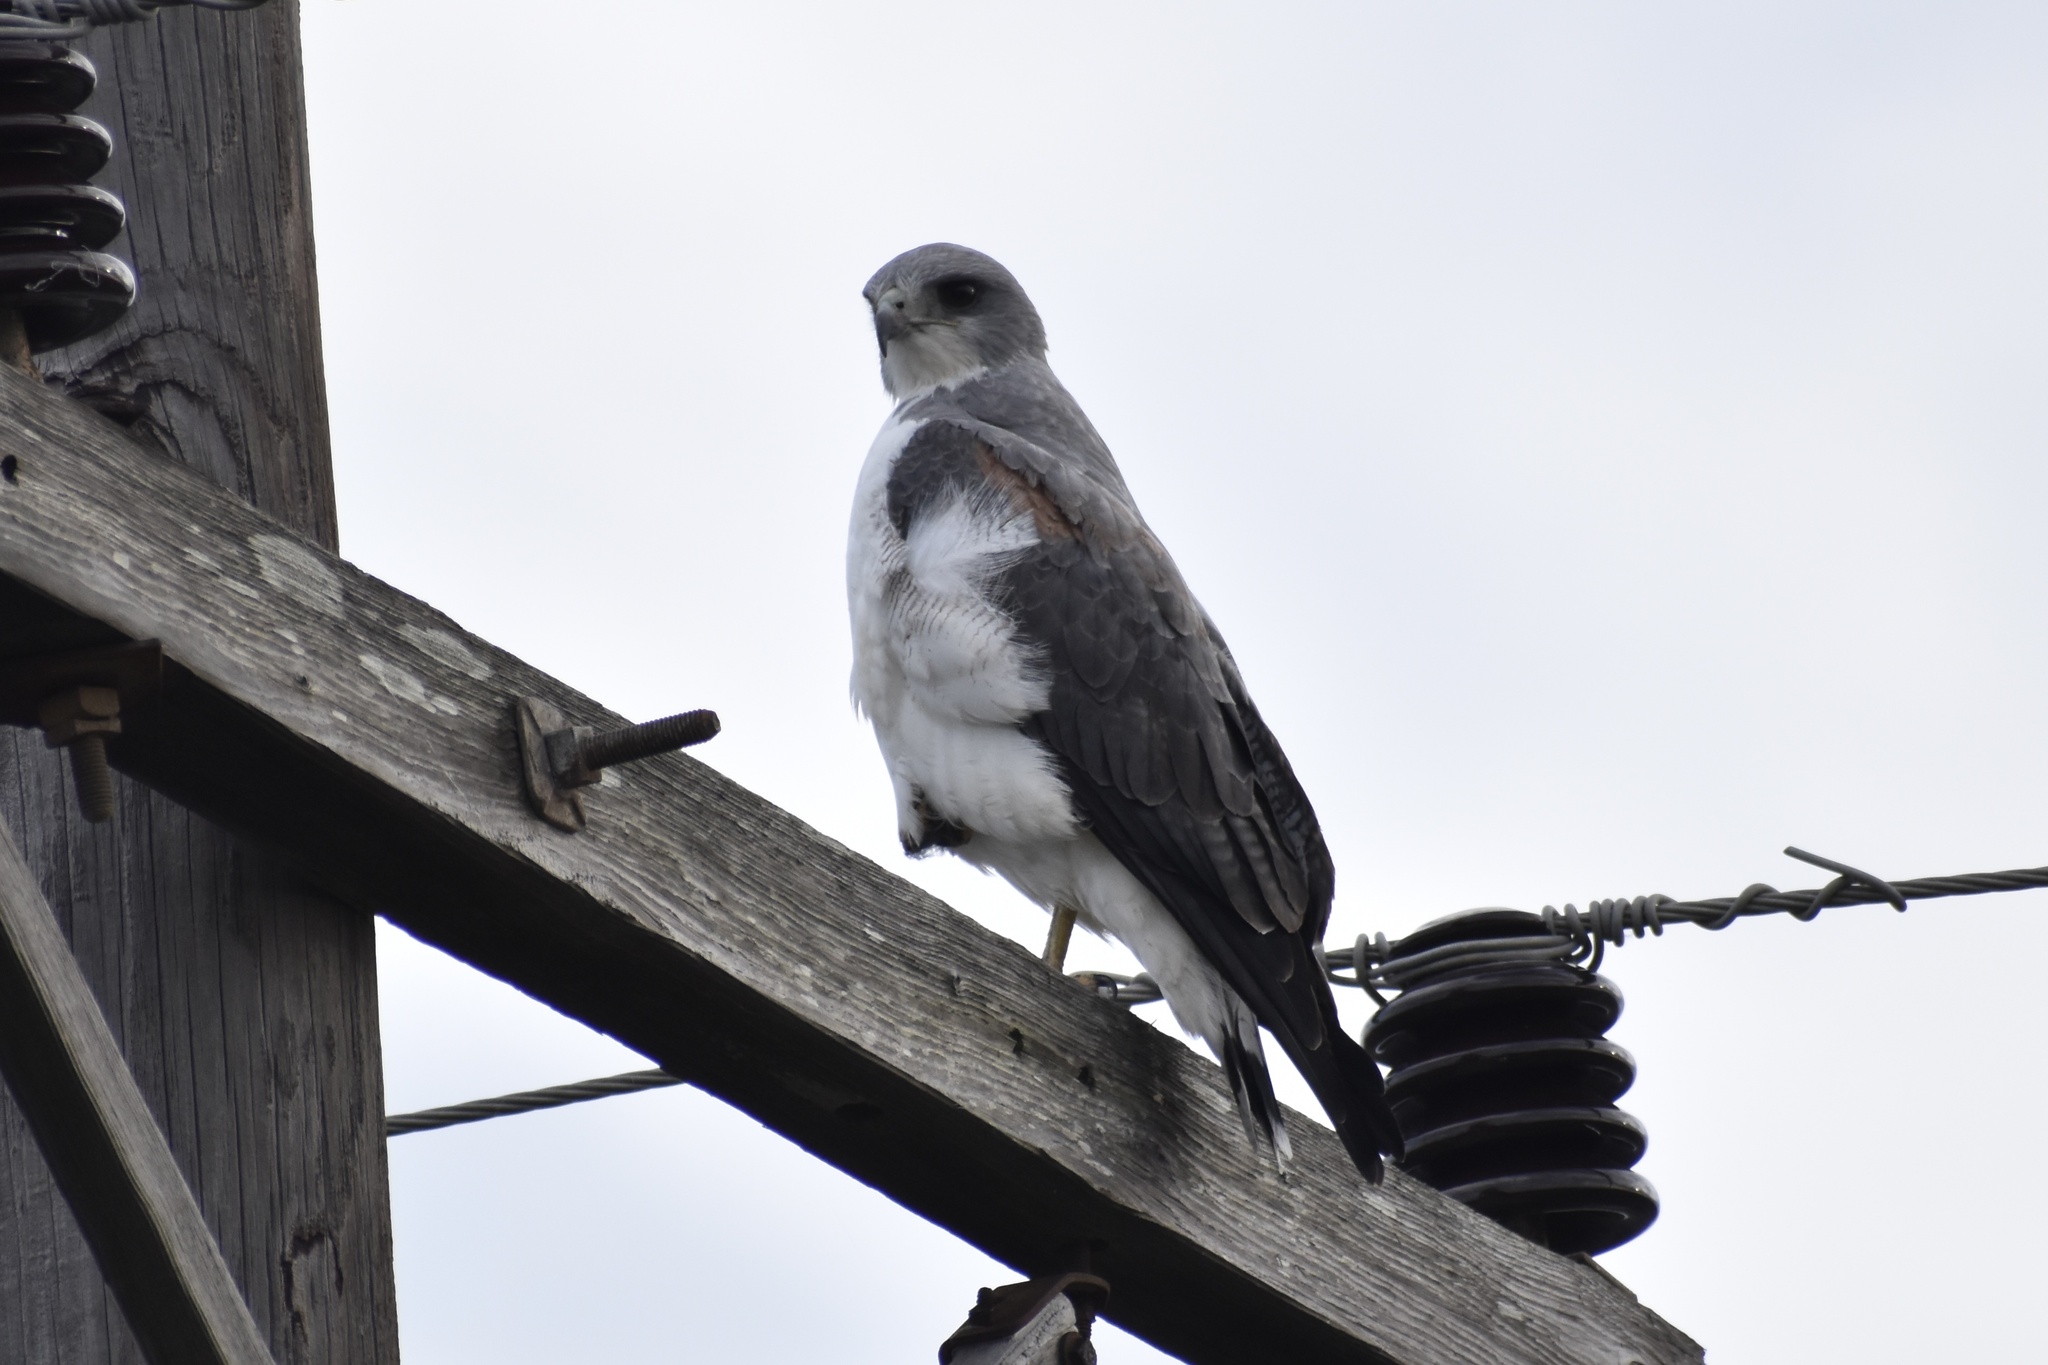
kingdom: Animalia
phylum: Chordata
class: Aves
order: Accipitriformes
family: Accipitridae
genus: Buteo
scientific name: Buteo albicaudatus
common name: White-tailed hawk
